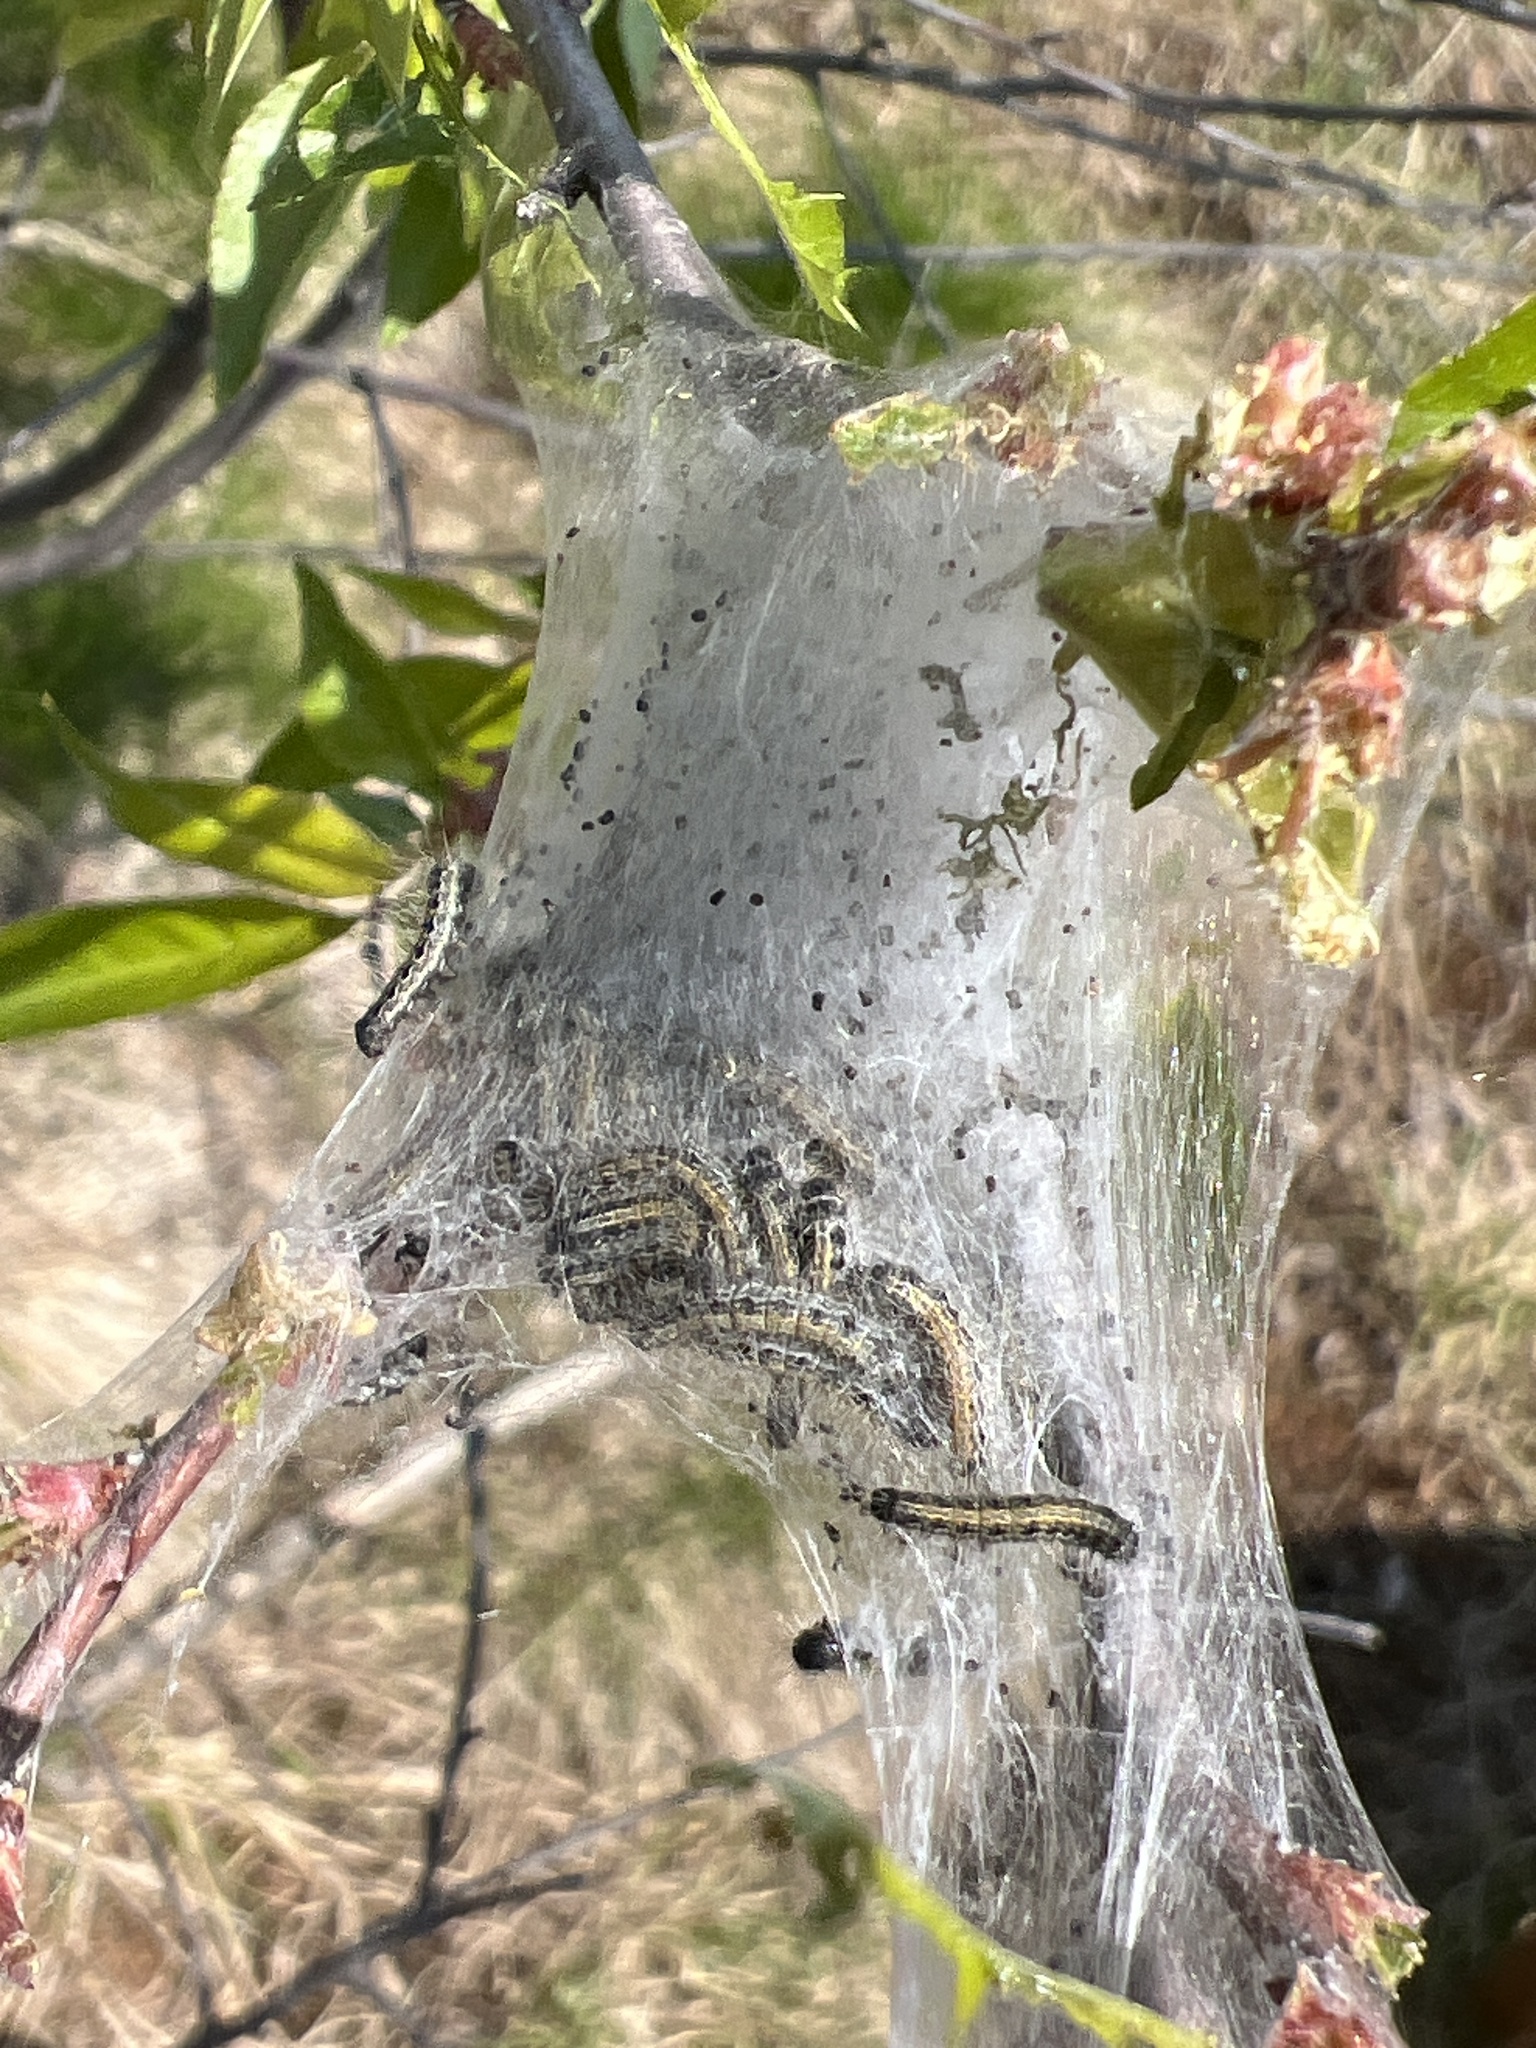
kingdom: Animalia
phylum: Arthropoda
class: Insecta
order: Lepidoptera
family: Lasiocampidae
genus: Malacosoma
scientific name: Malacosoma americana
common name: Eastern tent caterpillar moth
